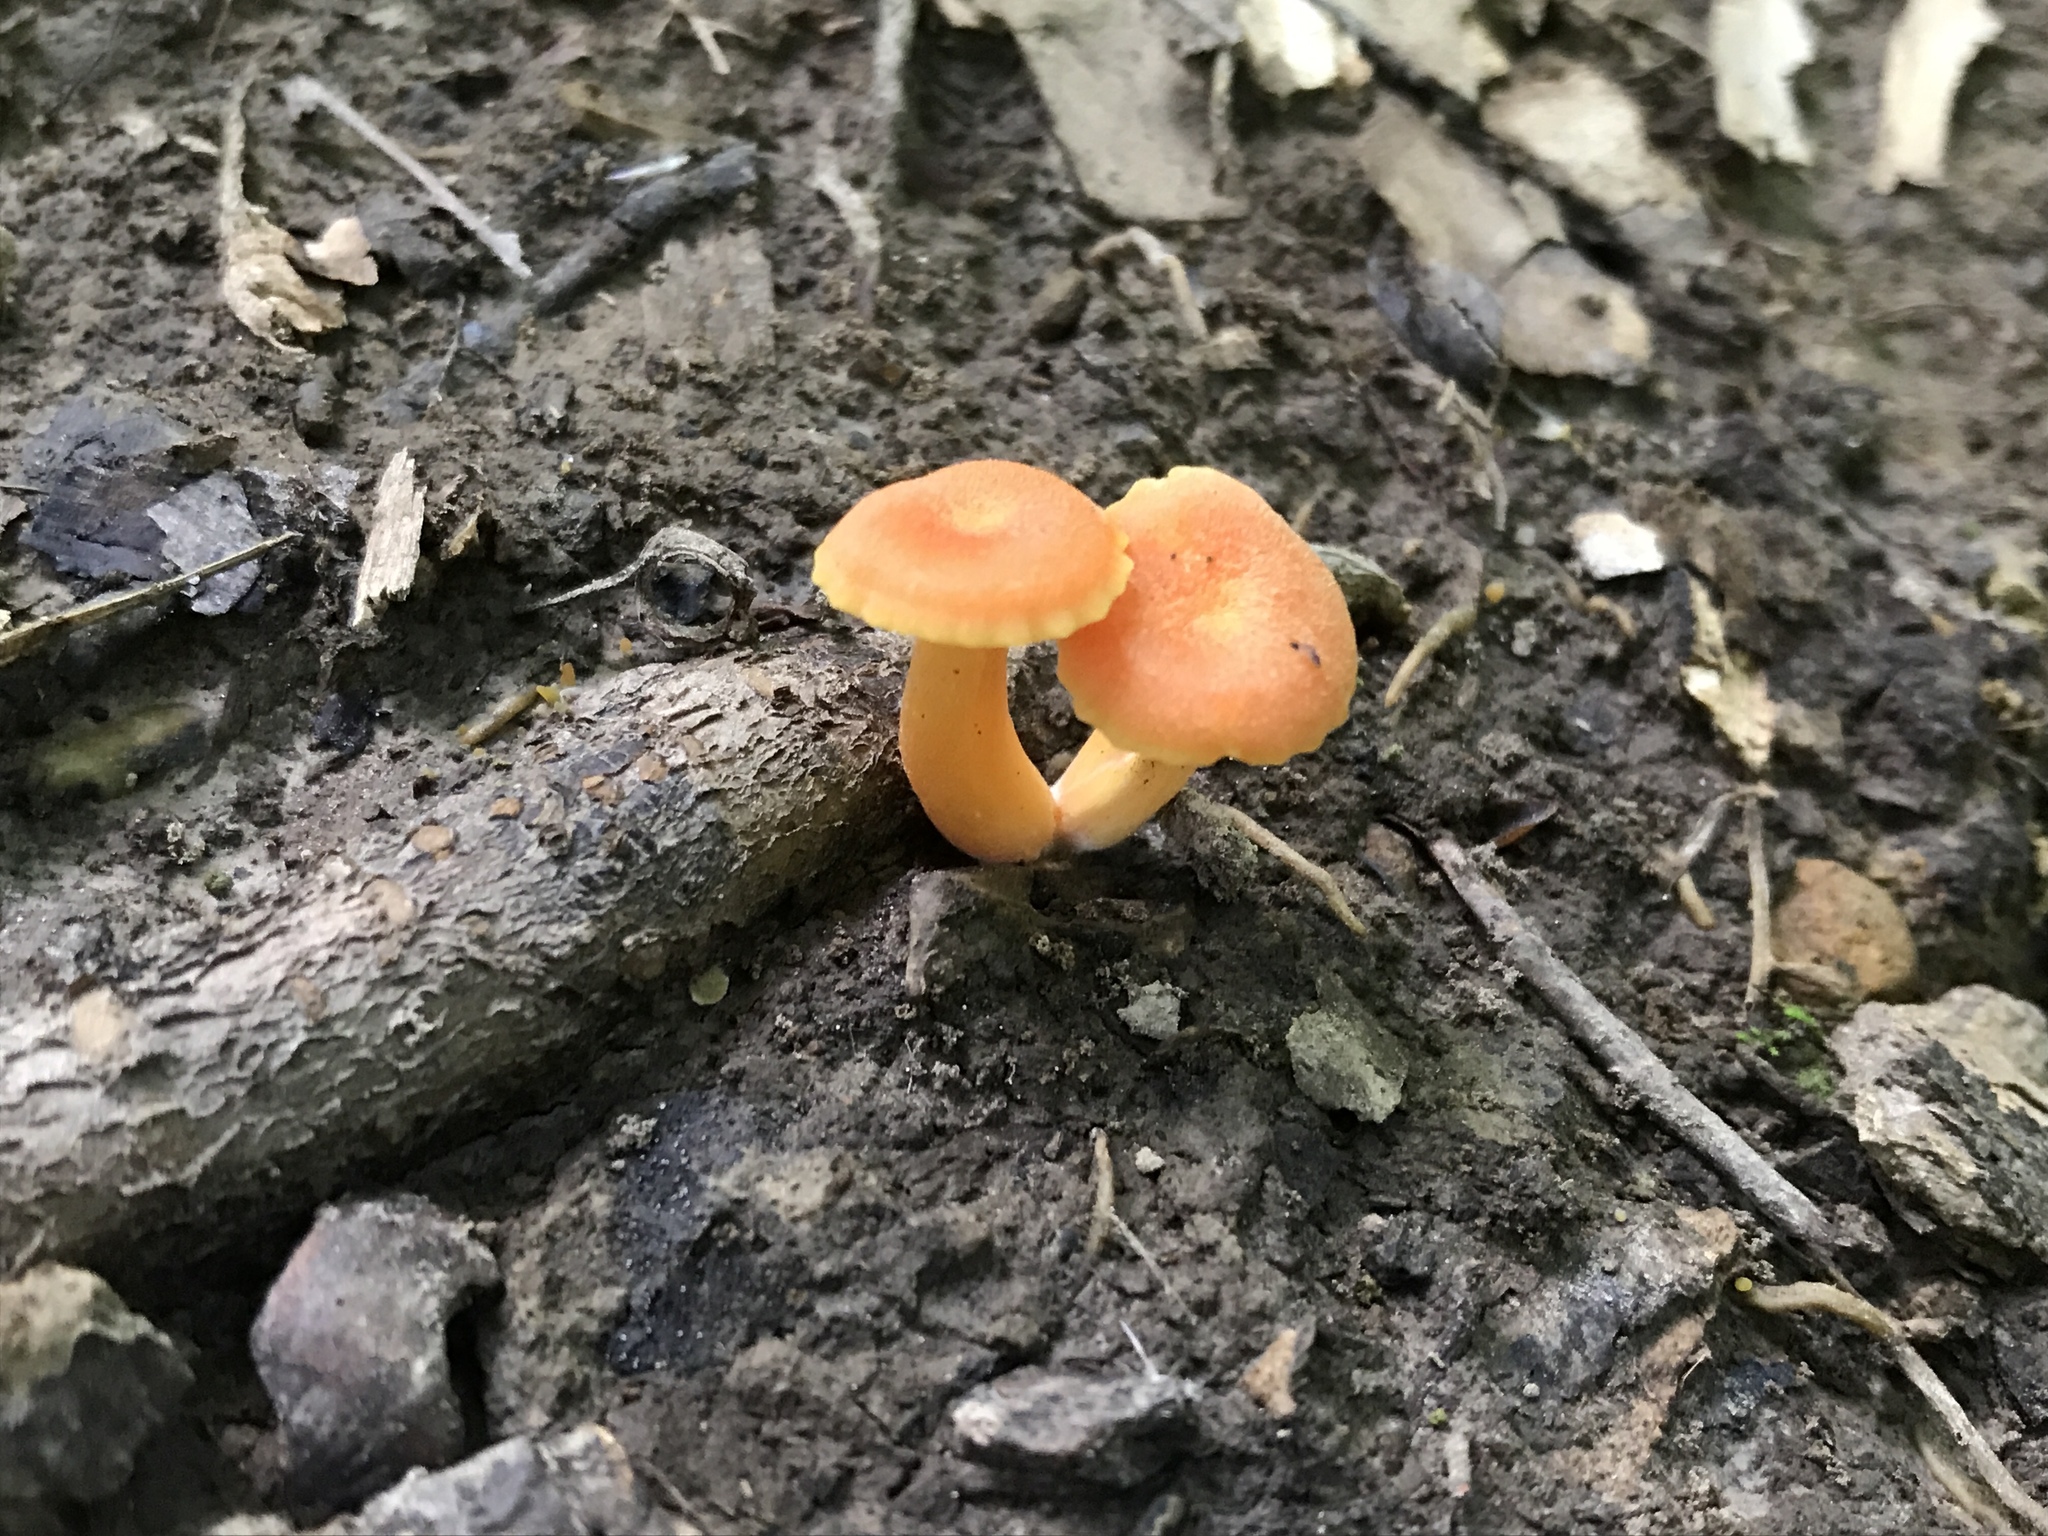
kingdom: Fungi
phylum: Basidiomycota
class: Agaricomycetes
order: Agaricales
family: Hygrophoraceae
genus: Hygrocybe
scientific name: Hygrocybe reidii
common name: Honey waxcap
